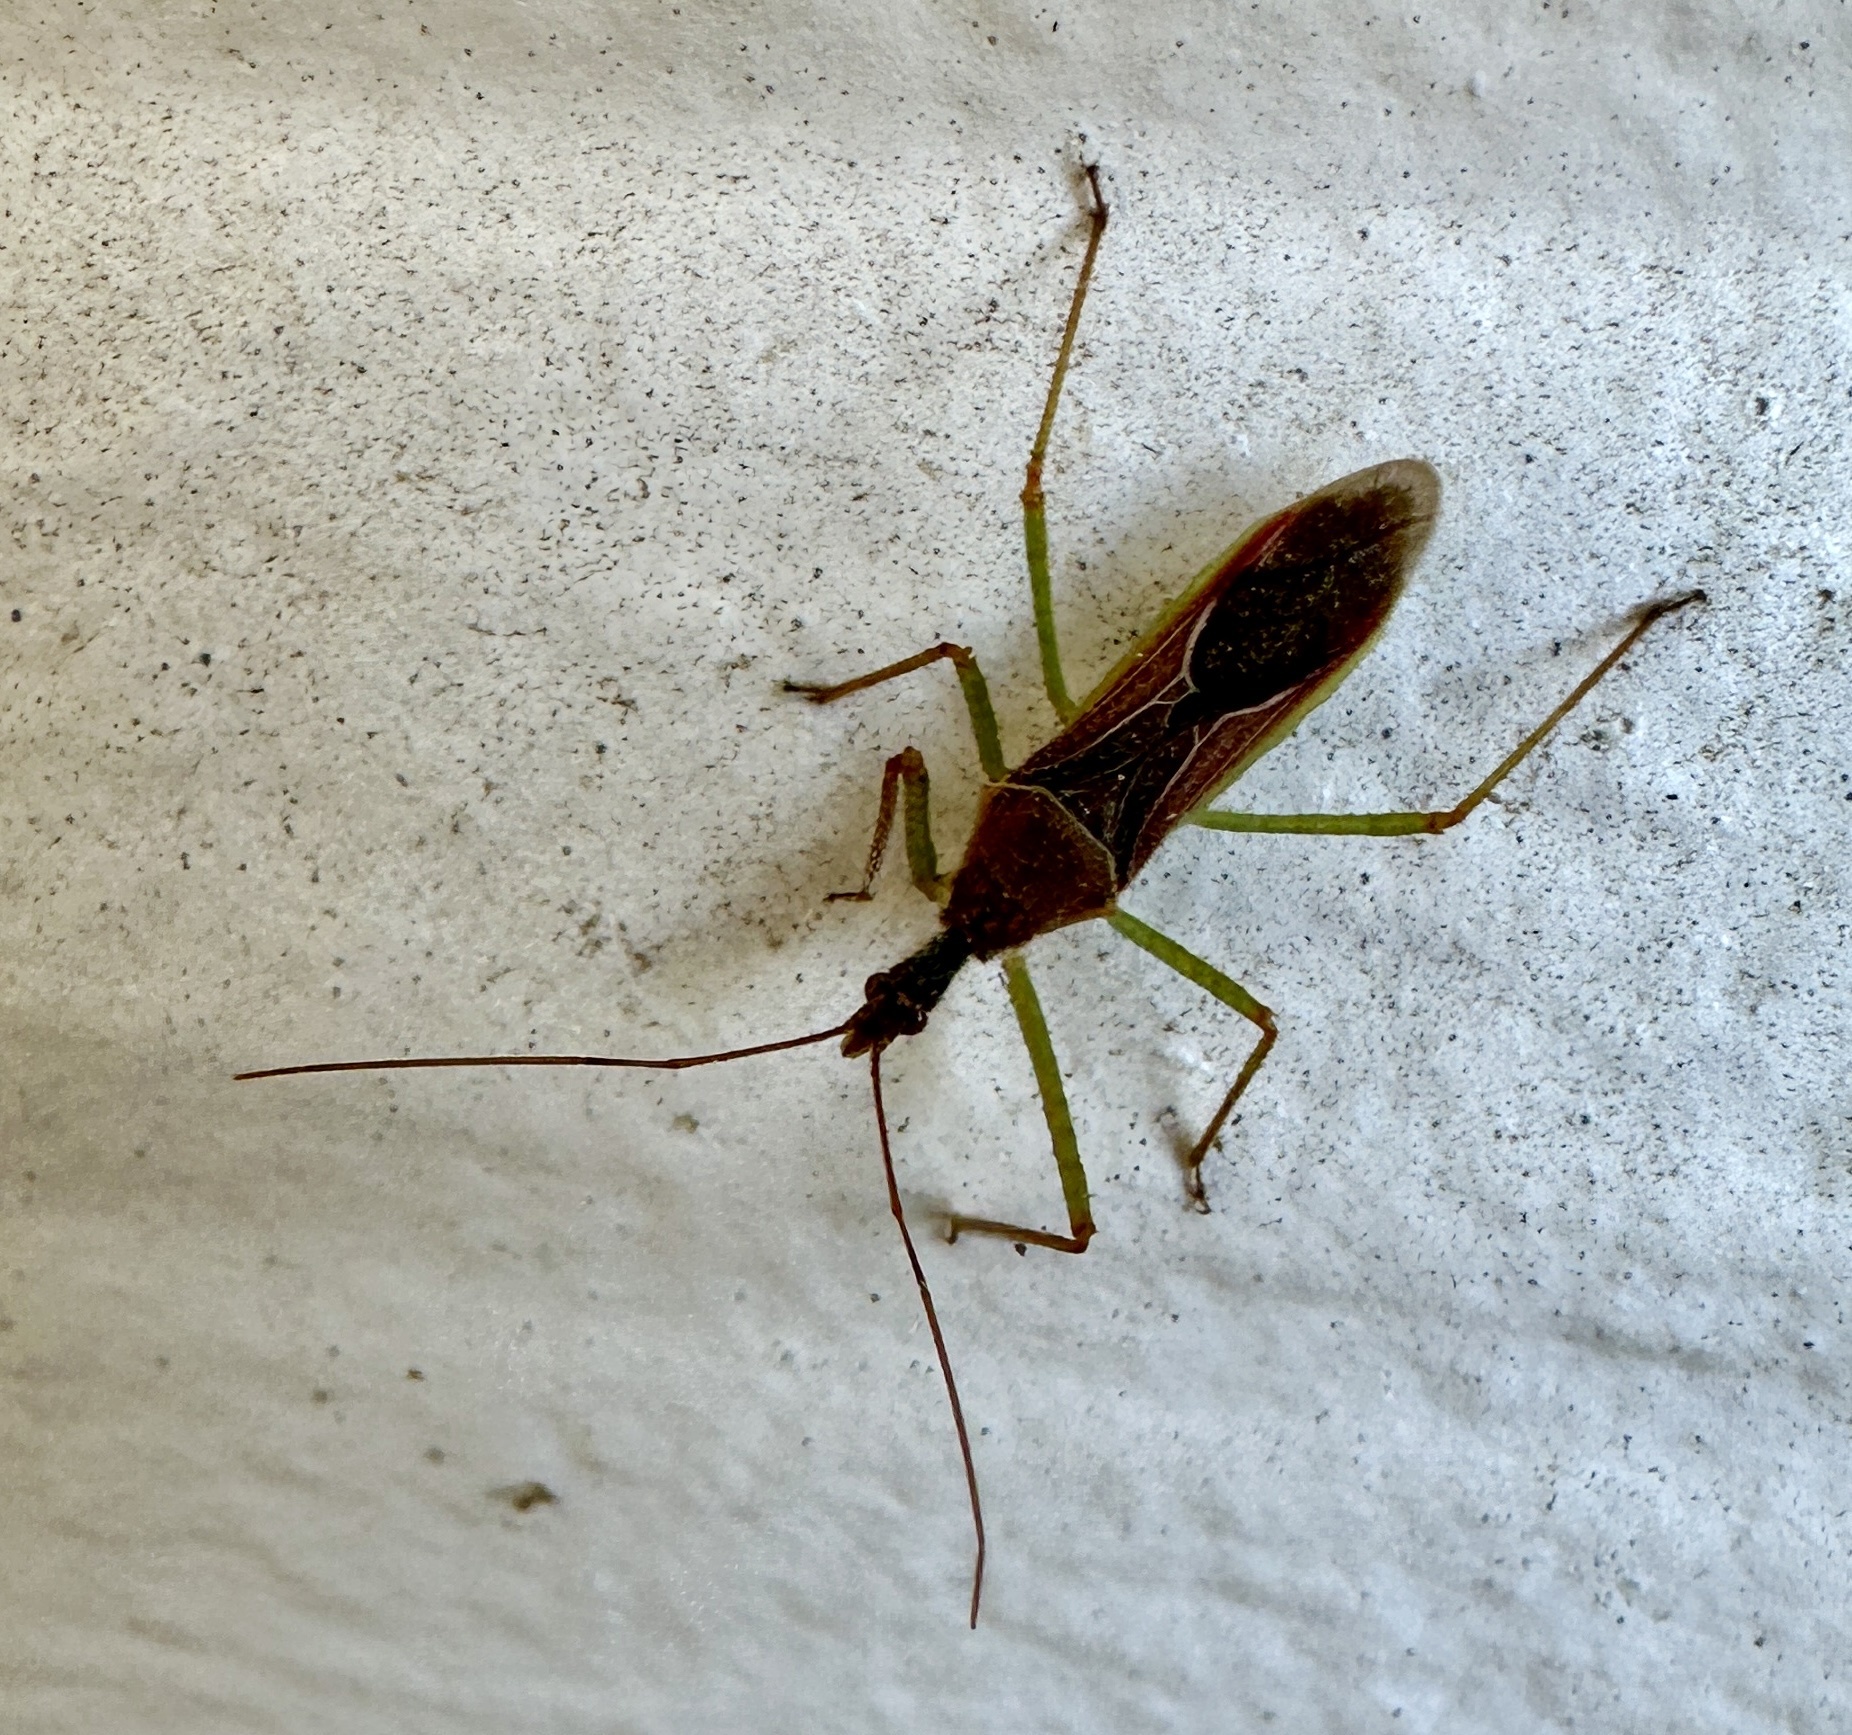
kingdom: Animalia
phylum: Arthropoda
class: Insecta
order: Hemiptera
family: Reduviidae
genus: Zelus
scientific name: Zelus renardii
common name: Assassin bug
